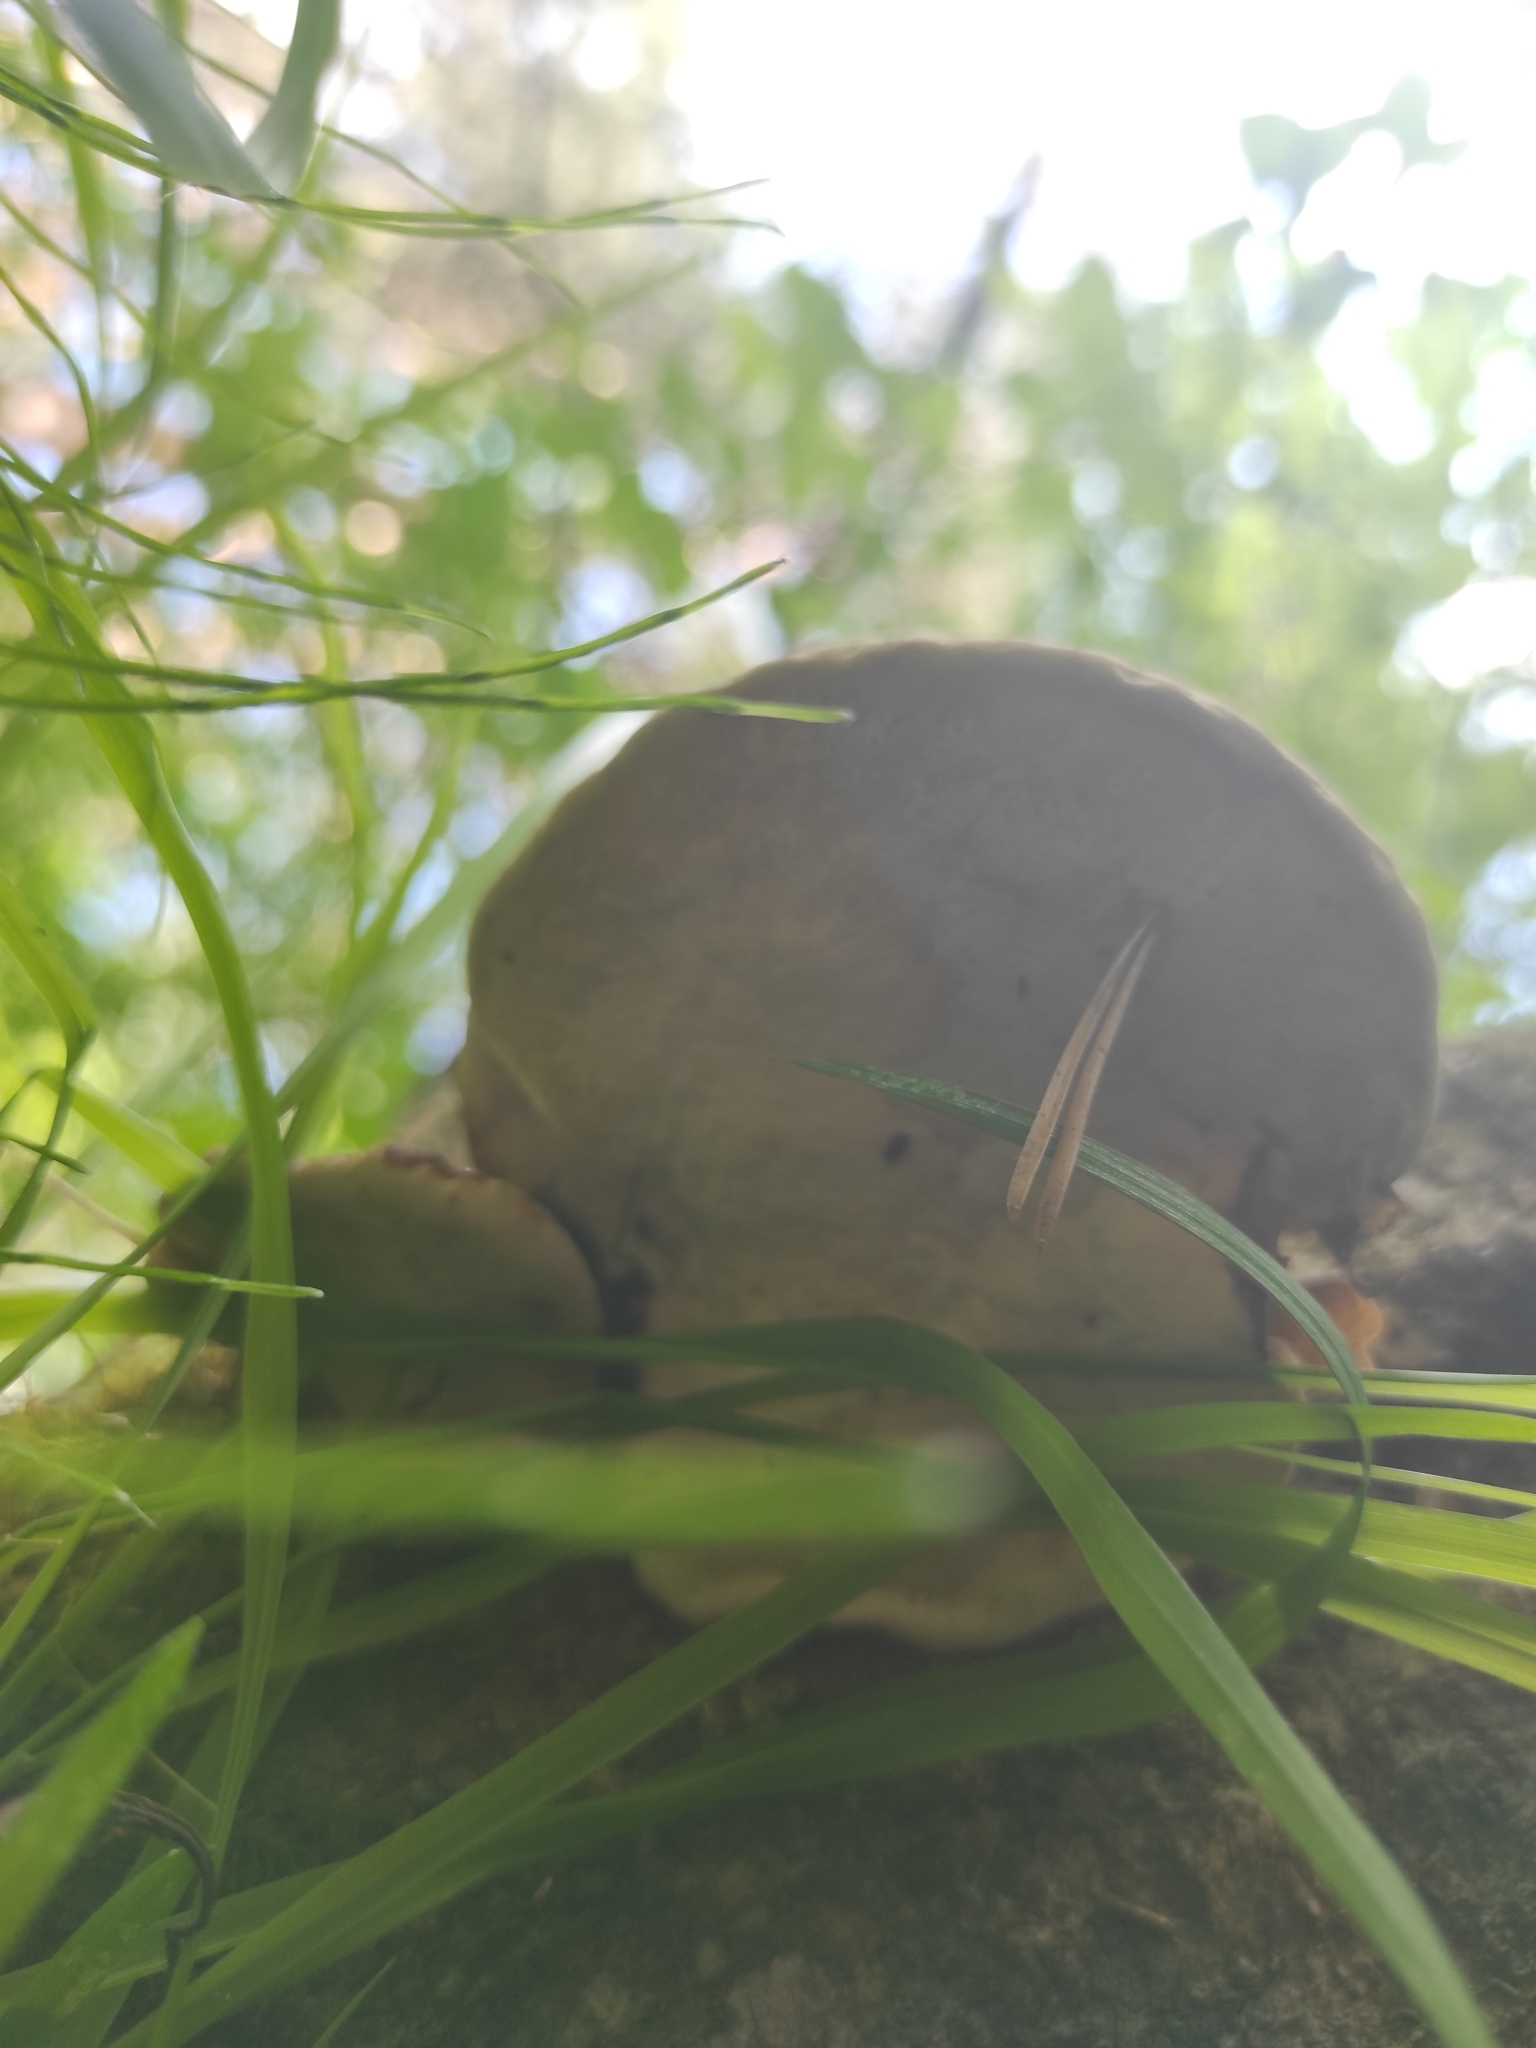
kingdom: Fungi
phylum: Basidiomycota
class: Agaricomycetes
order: Polyporales
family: Fomitopsidaceae
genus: Fomitopsis
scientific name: Fomitopsis pinicola
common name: Red-belted bracket
